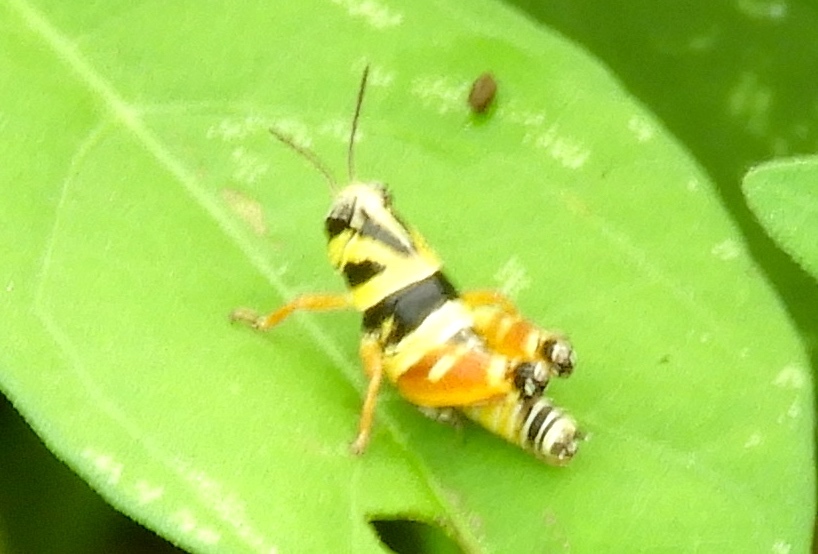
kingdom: Animalia
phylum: Arthropoda
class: Insecta
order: Orthoptera
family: Acrididae
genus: Aidemona
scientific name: Aidemona azteca
